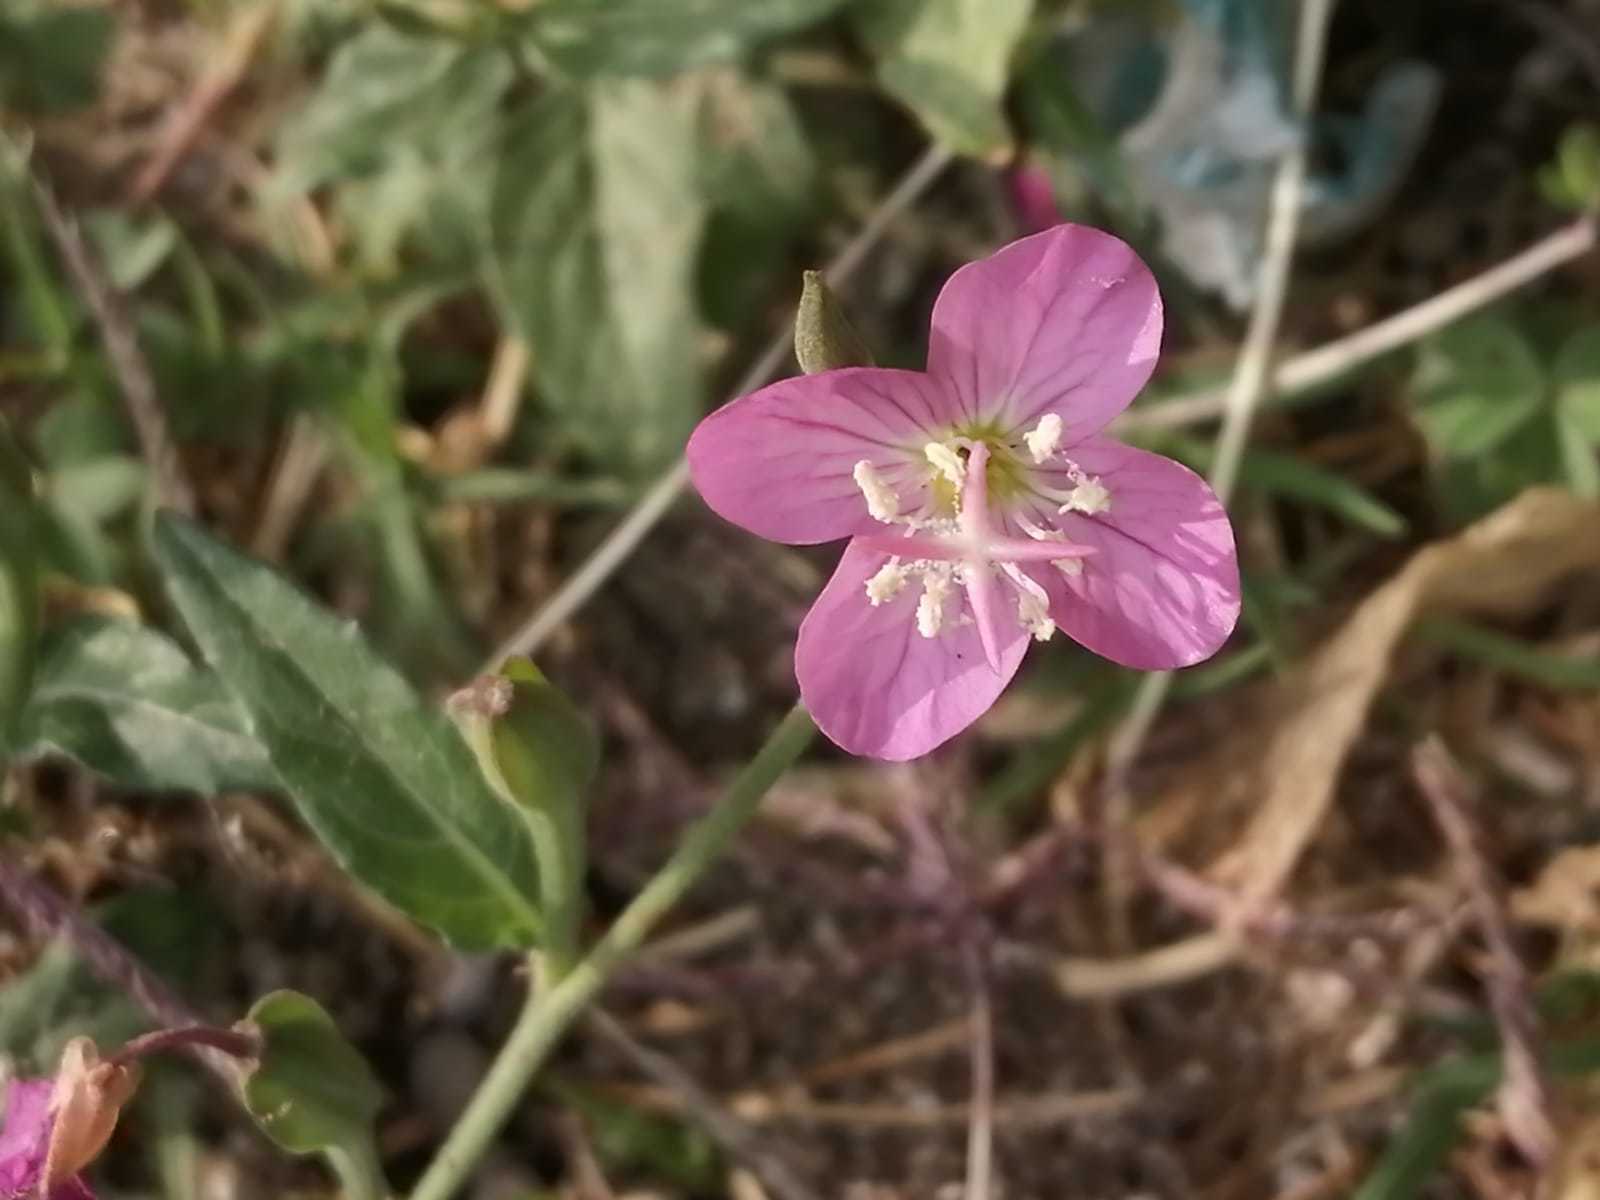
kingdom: Plantae
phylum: Tracheophyta
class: Magnoliopsida
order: Myrtales
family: Onagraceae
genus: Oenothera
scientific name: Oenothera rosea
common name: Rosy evening-primrose
